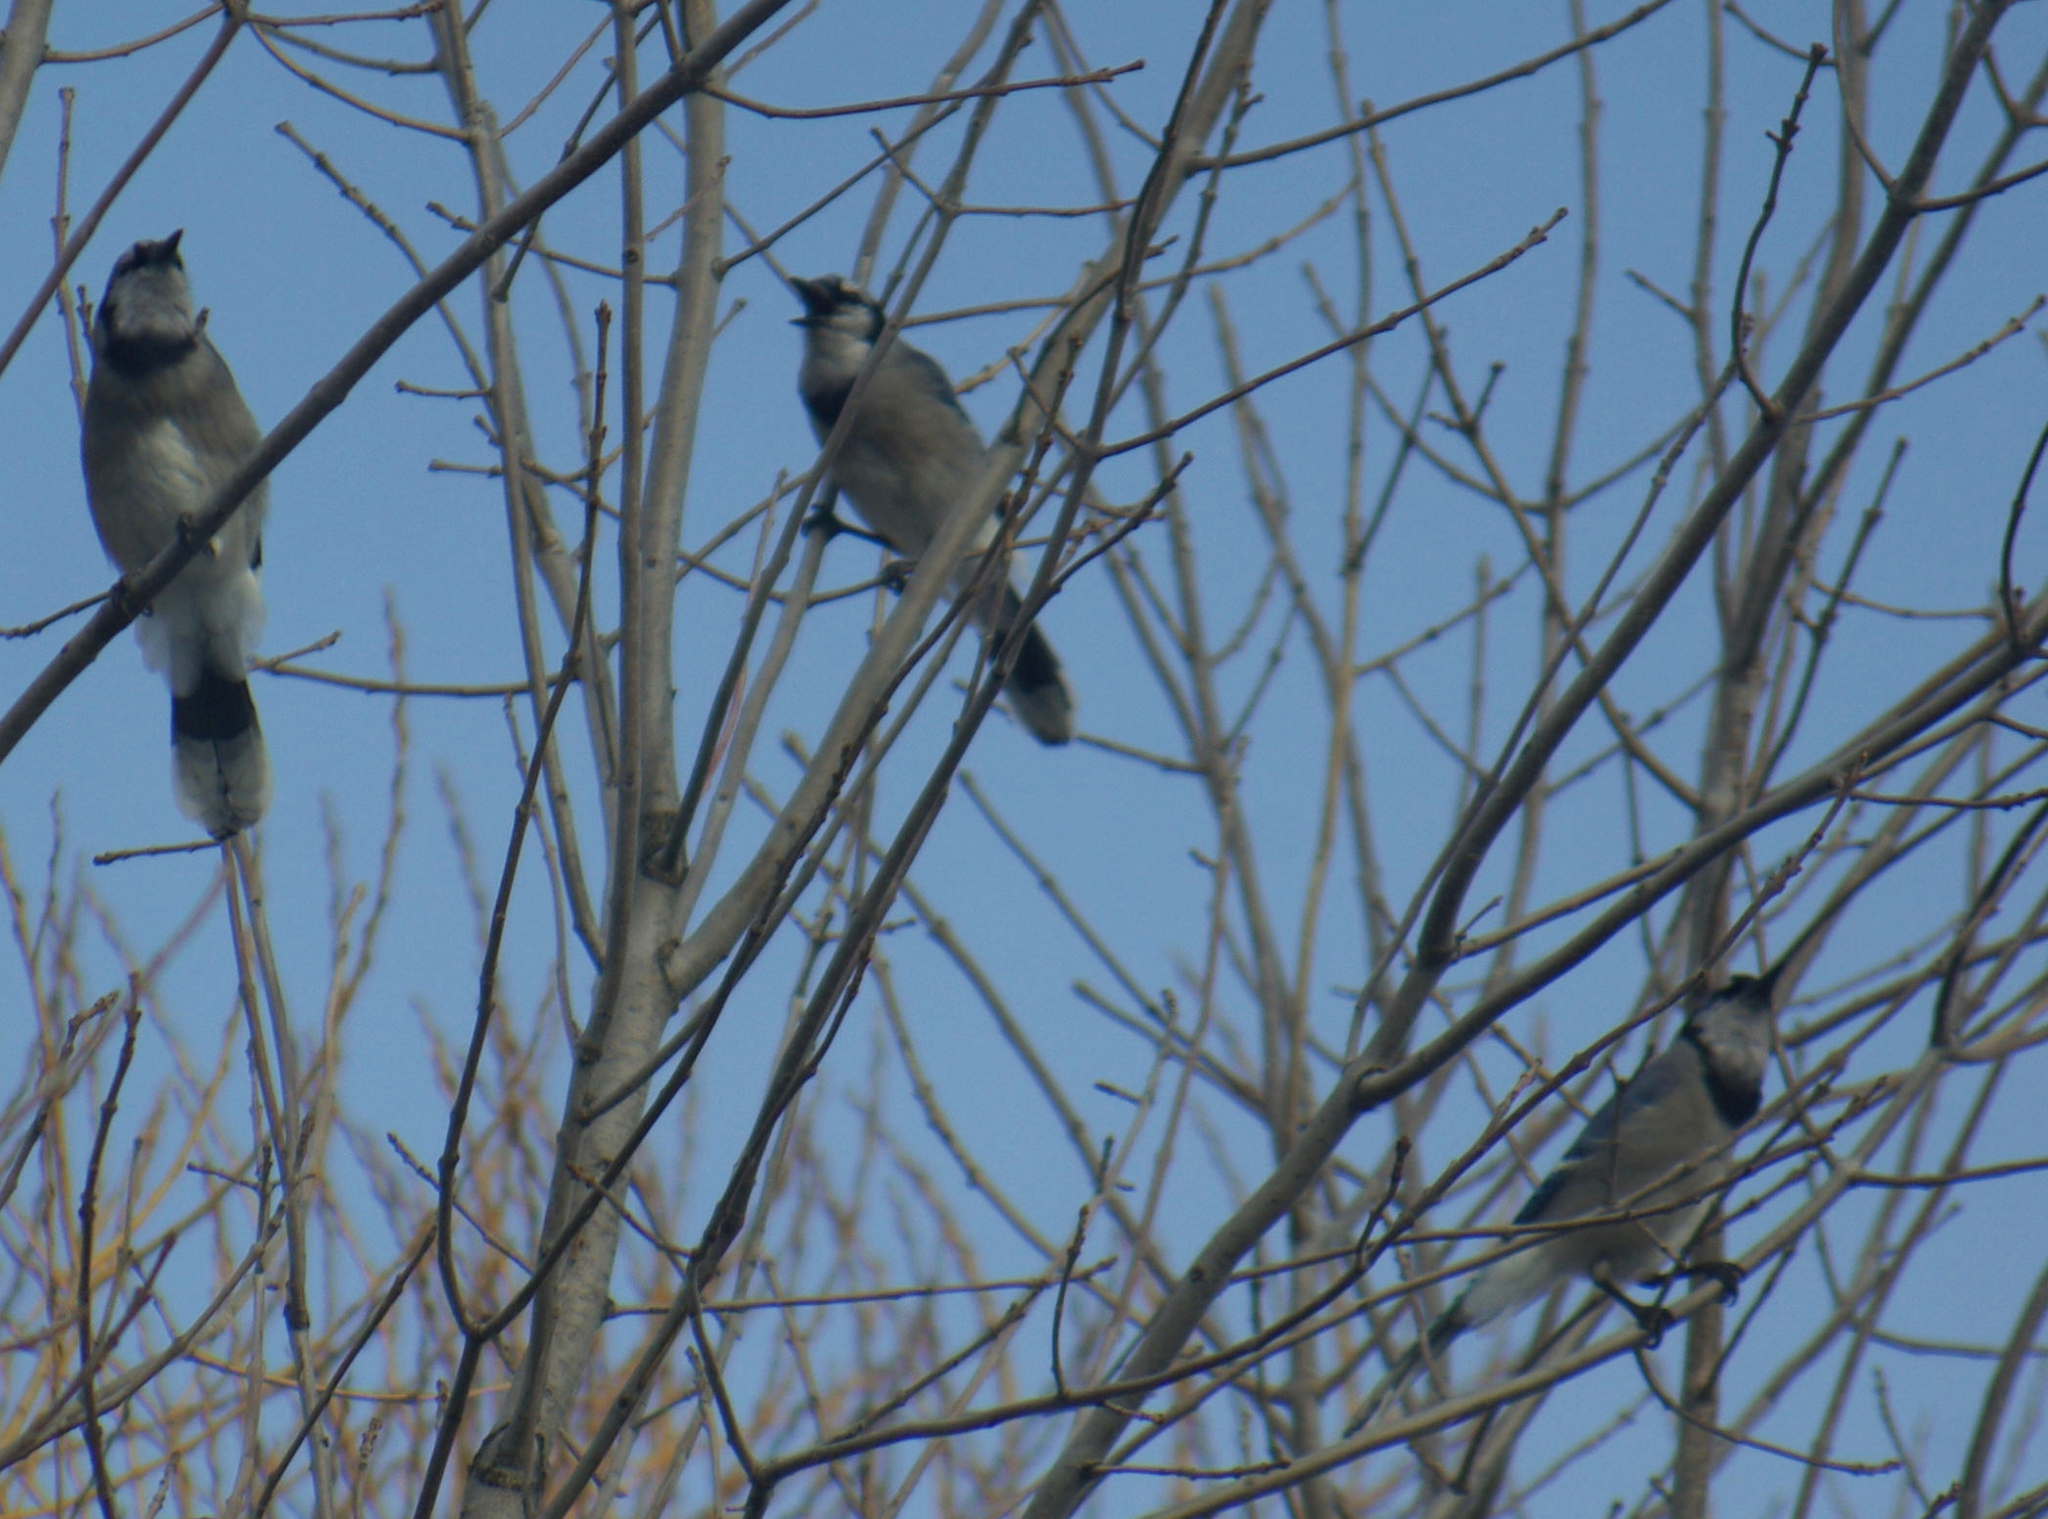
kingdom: Animalia
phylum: Chordata
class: Aves
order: Passeriformes
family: Corvidae
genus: Cyanocitta
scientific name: Cyanocitta cristata
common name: Blue jay
